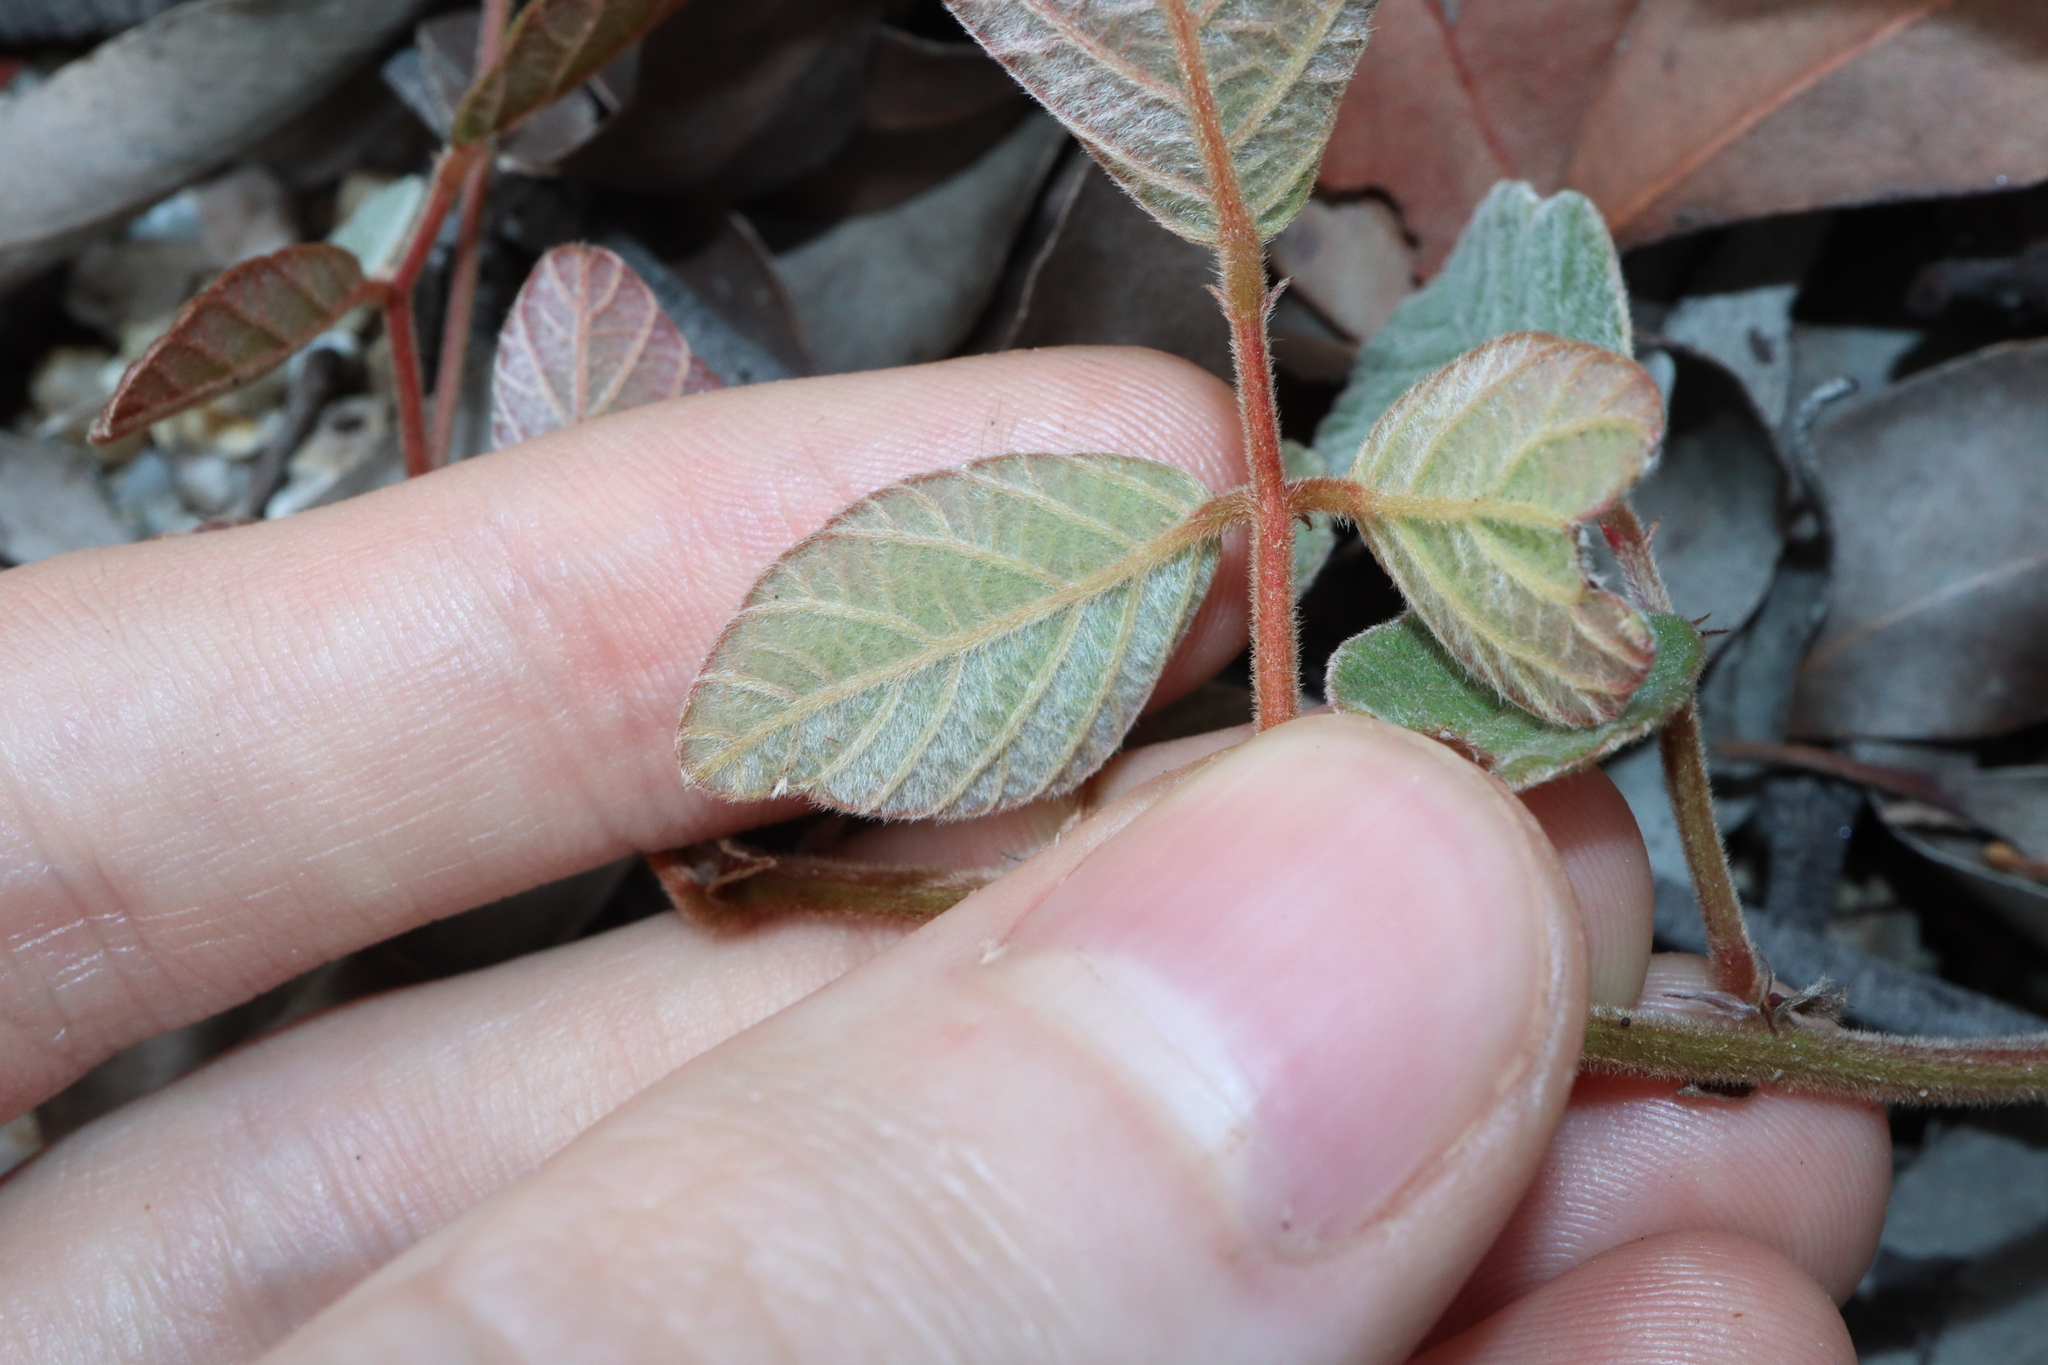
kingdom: Plantae
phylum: Tracheophyta
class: Magnoliopsida
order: Fabales
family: Fabaceae
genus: Maekawaea
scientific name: Maekawaea rhytidophylla
